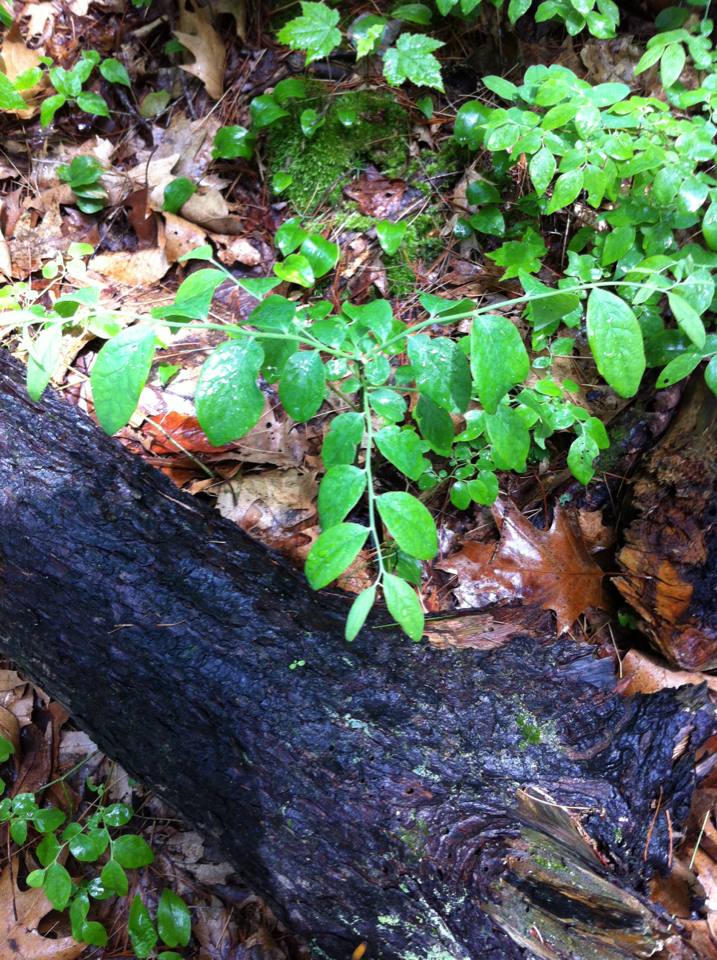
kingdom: Plantae
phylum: Tracheophyta
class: Magnoliopsida
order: Ericales
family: Ericaceae
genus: Vaccinium
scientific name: Vaccinium pallidum
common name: Blue ridge blueberry
